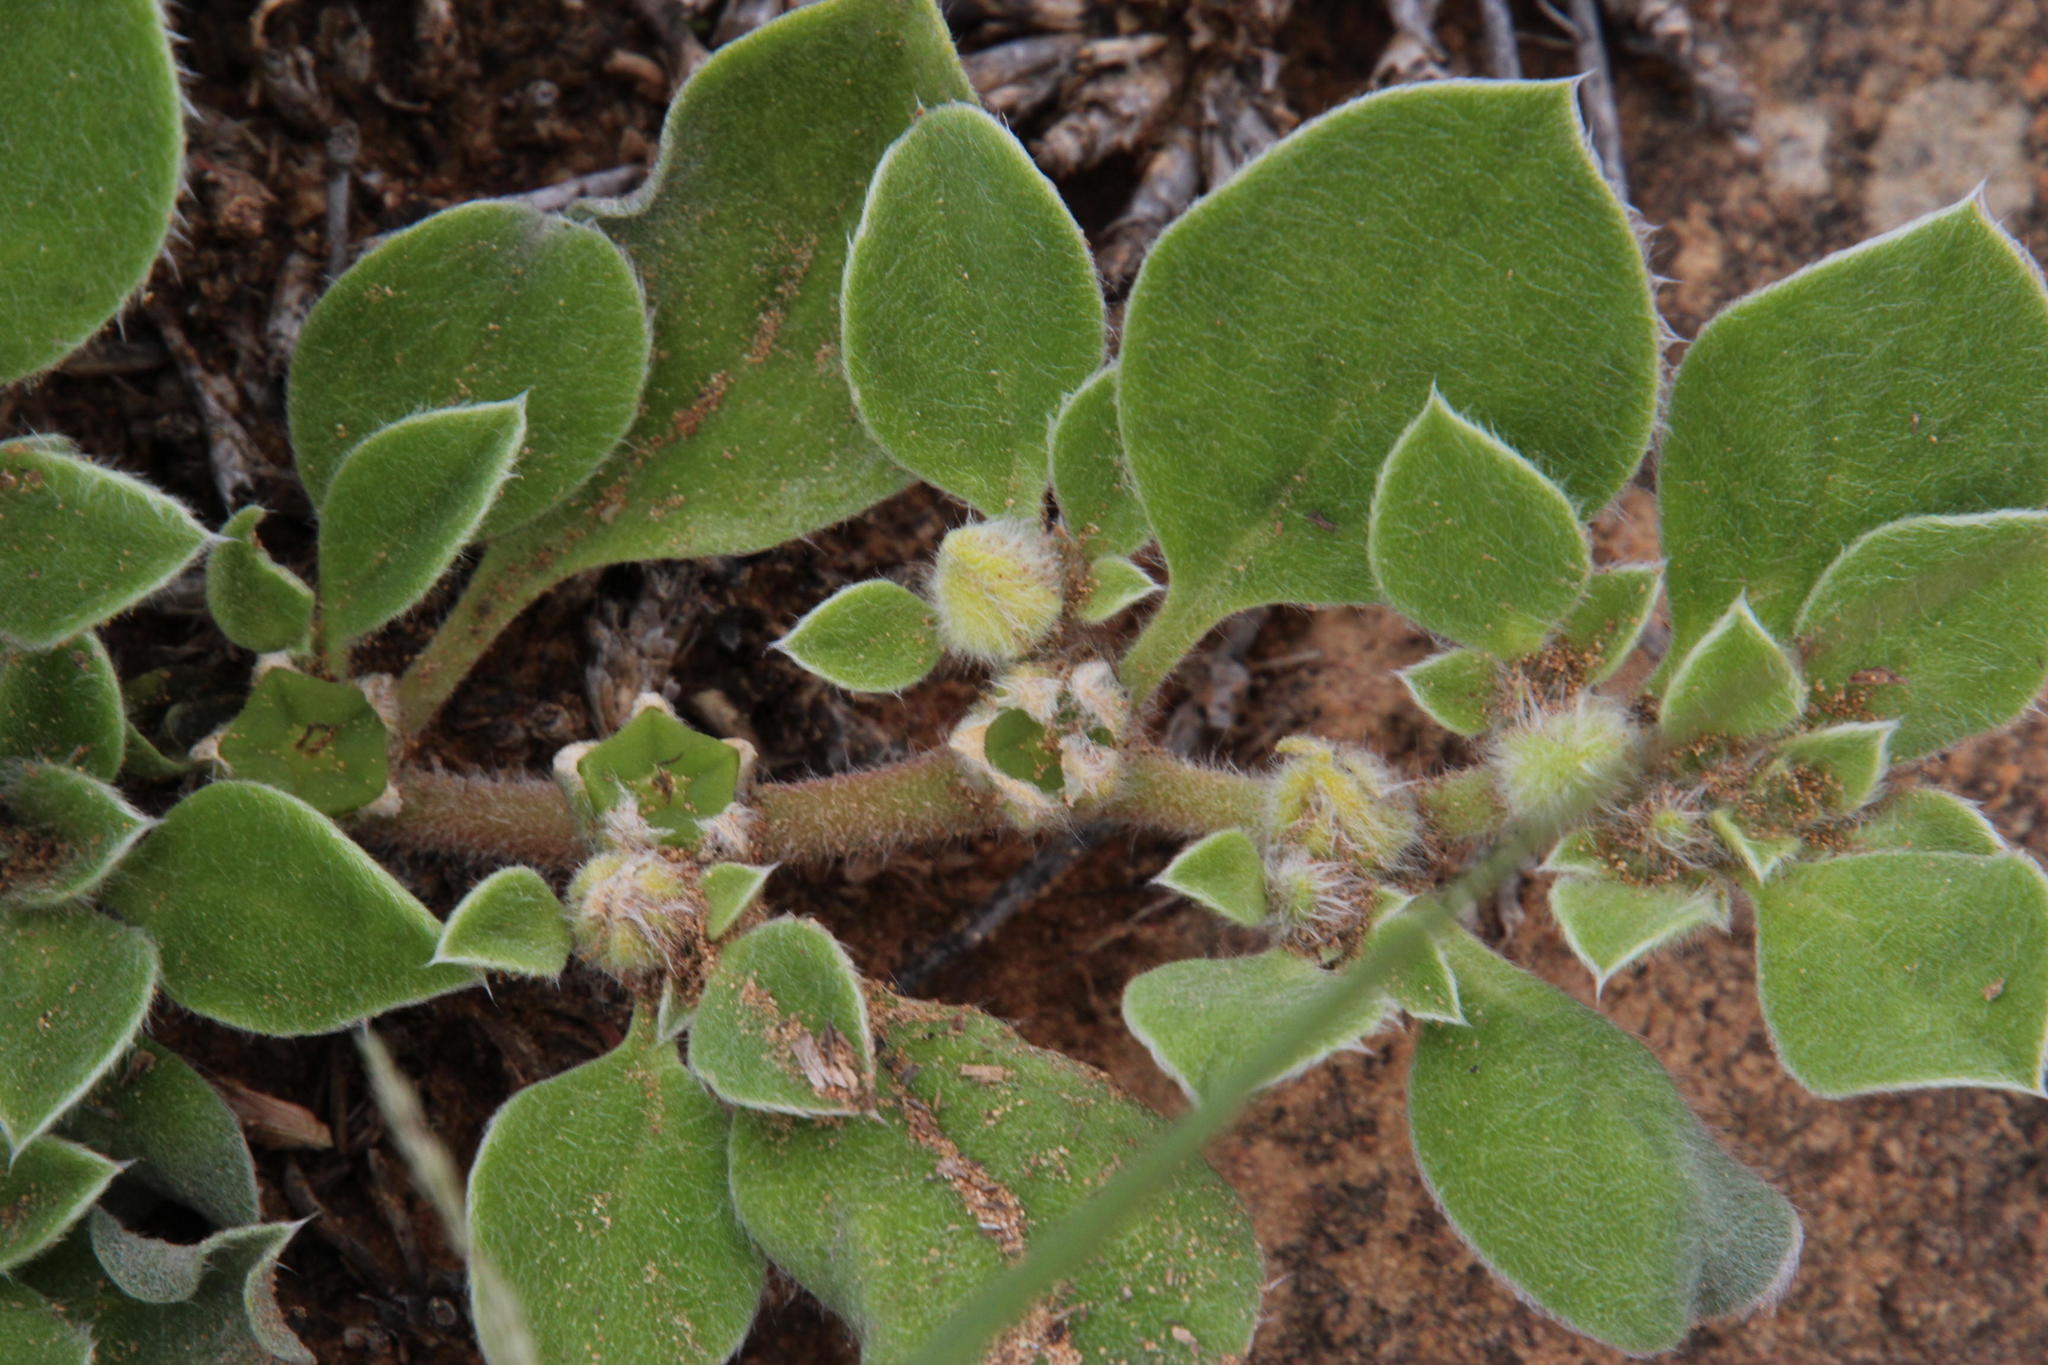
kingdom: Plantae
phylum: Tracheophyta
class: Magnoliopsida
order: Caryophyllales
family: Aizoaceae
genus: Aizoon
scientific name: Aizoon glinoides
